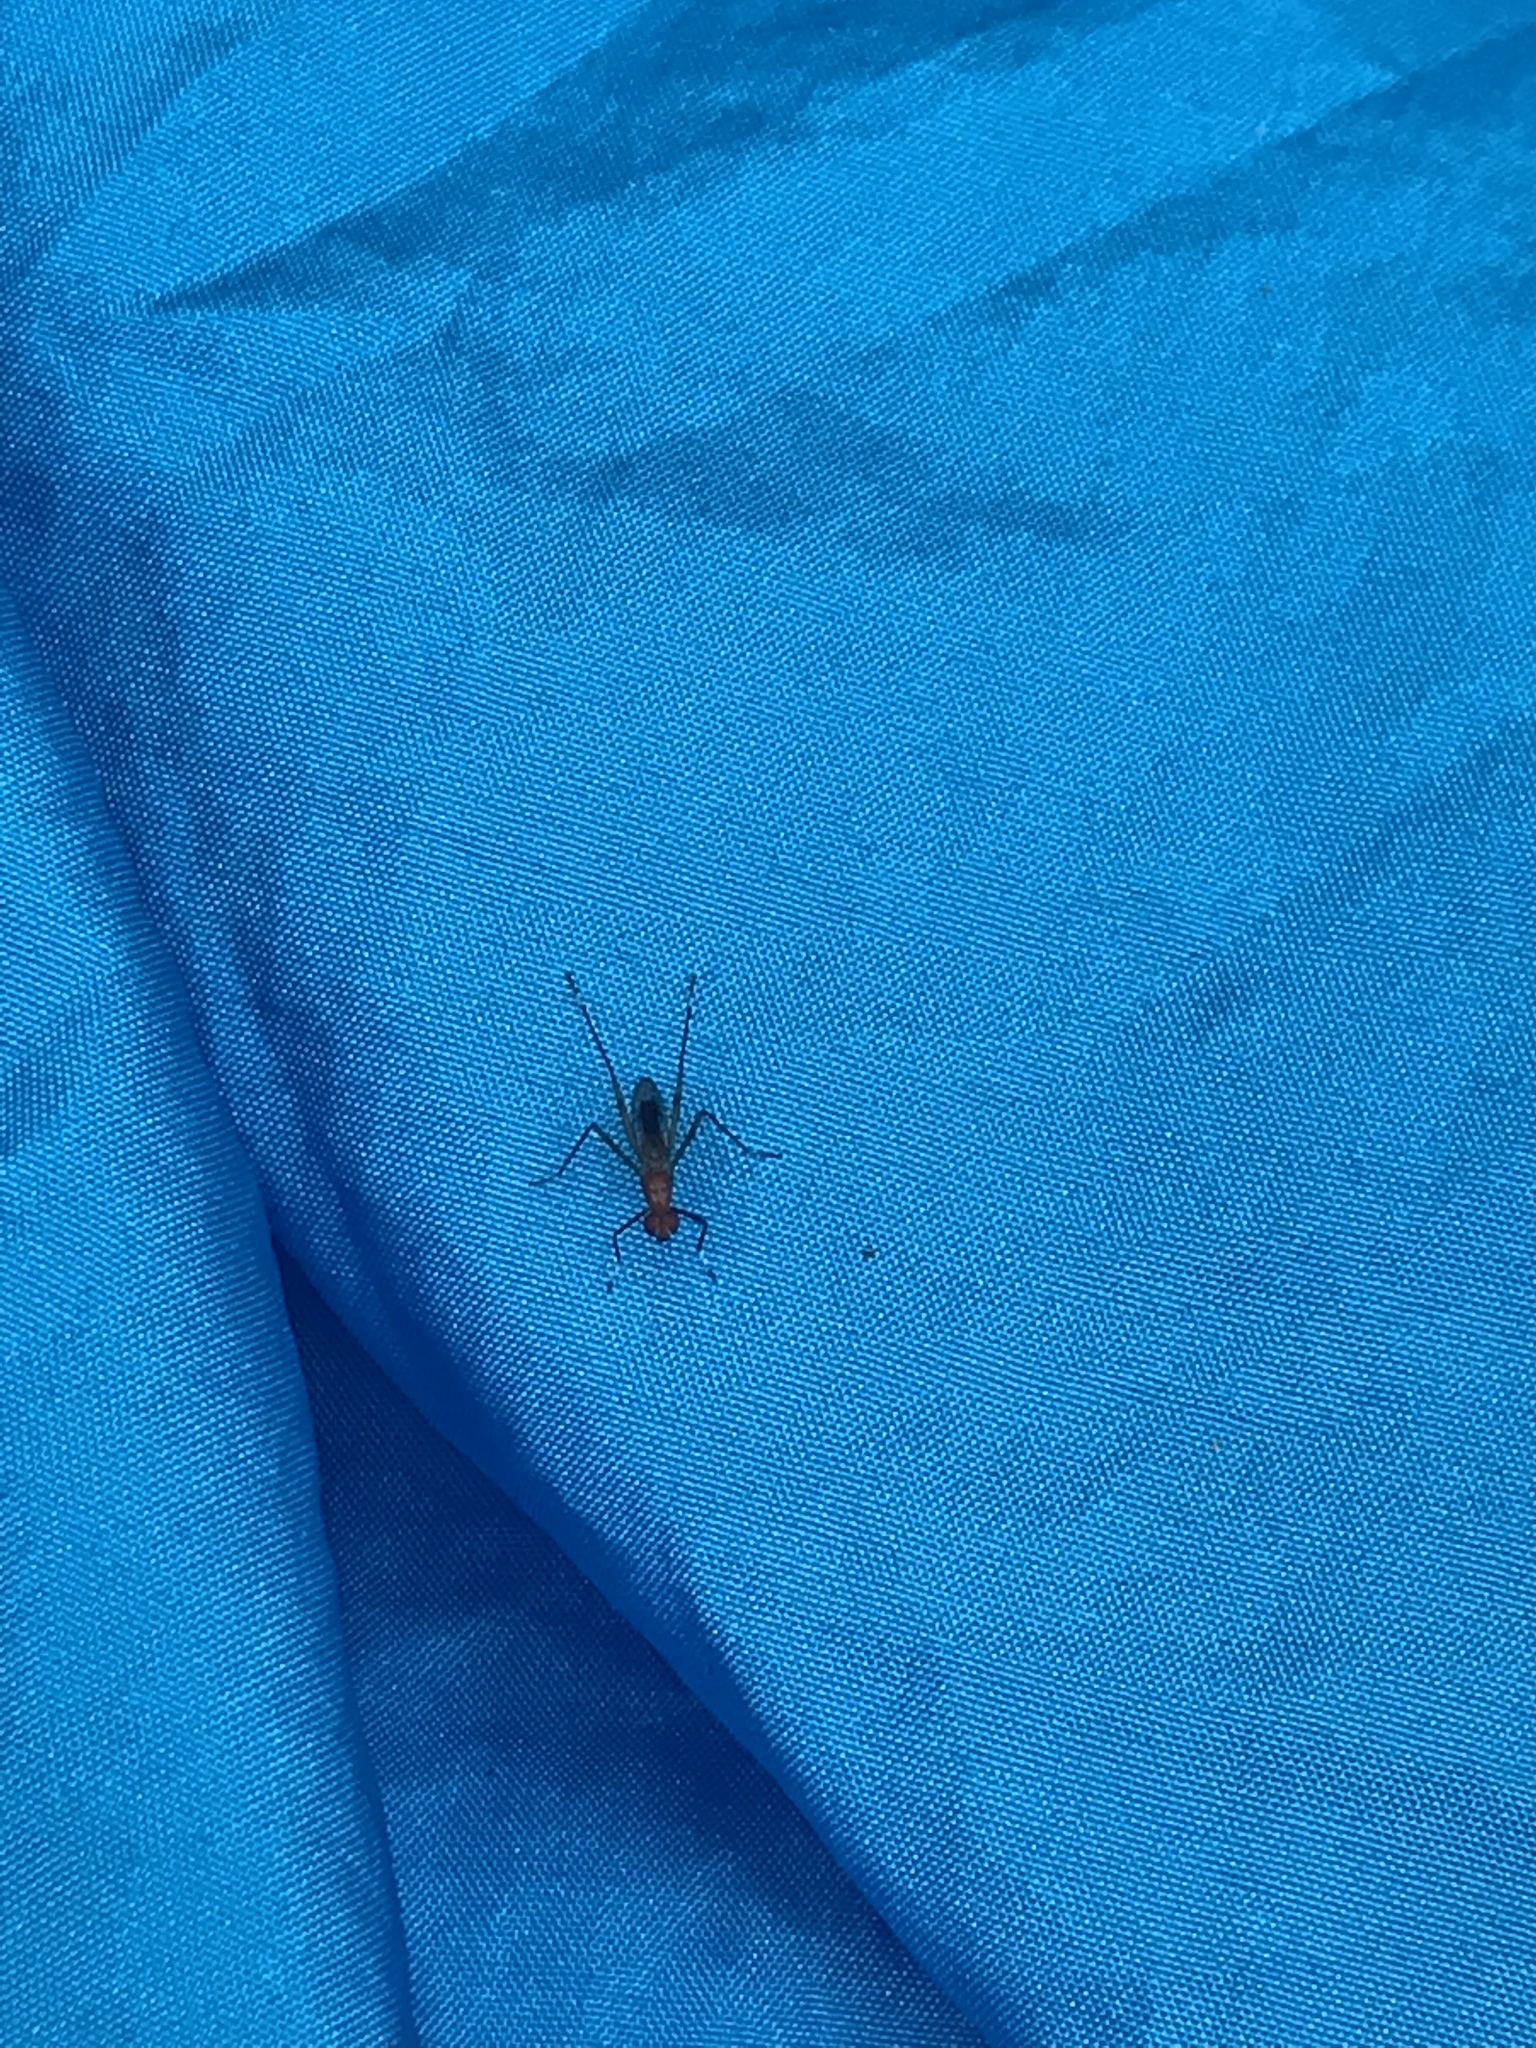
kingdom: Animalia
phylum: Arthropoda
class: Insecta
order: Diptera
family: Micropezidae
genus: Grallipeza
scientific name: Grallipeza nebulosa
